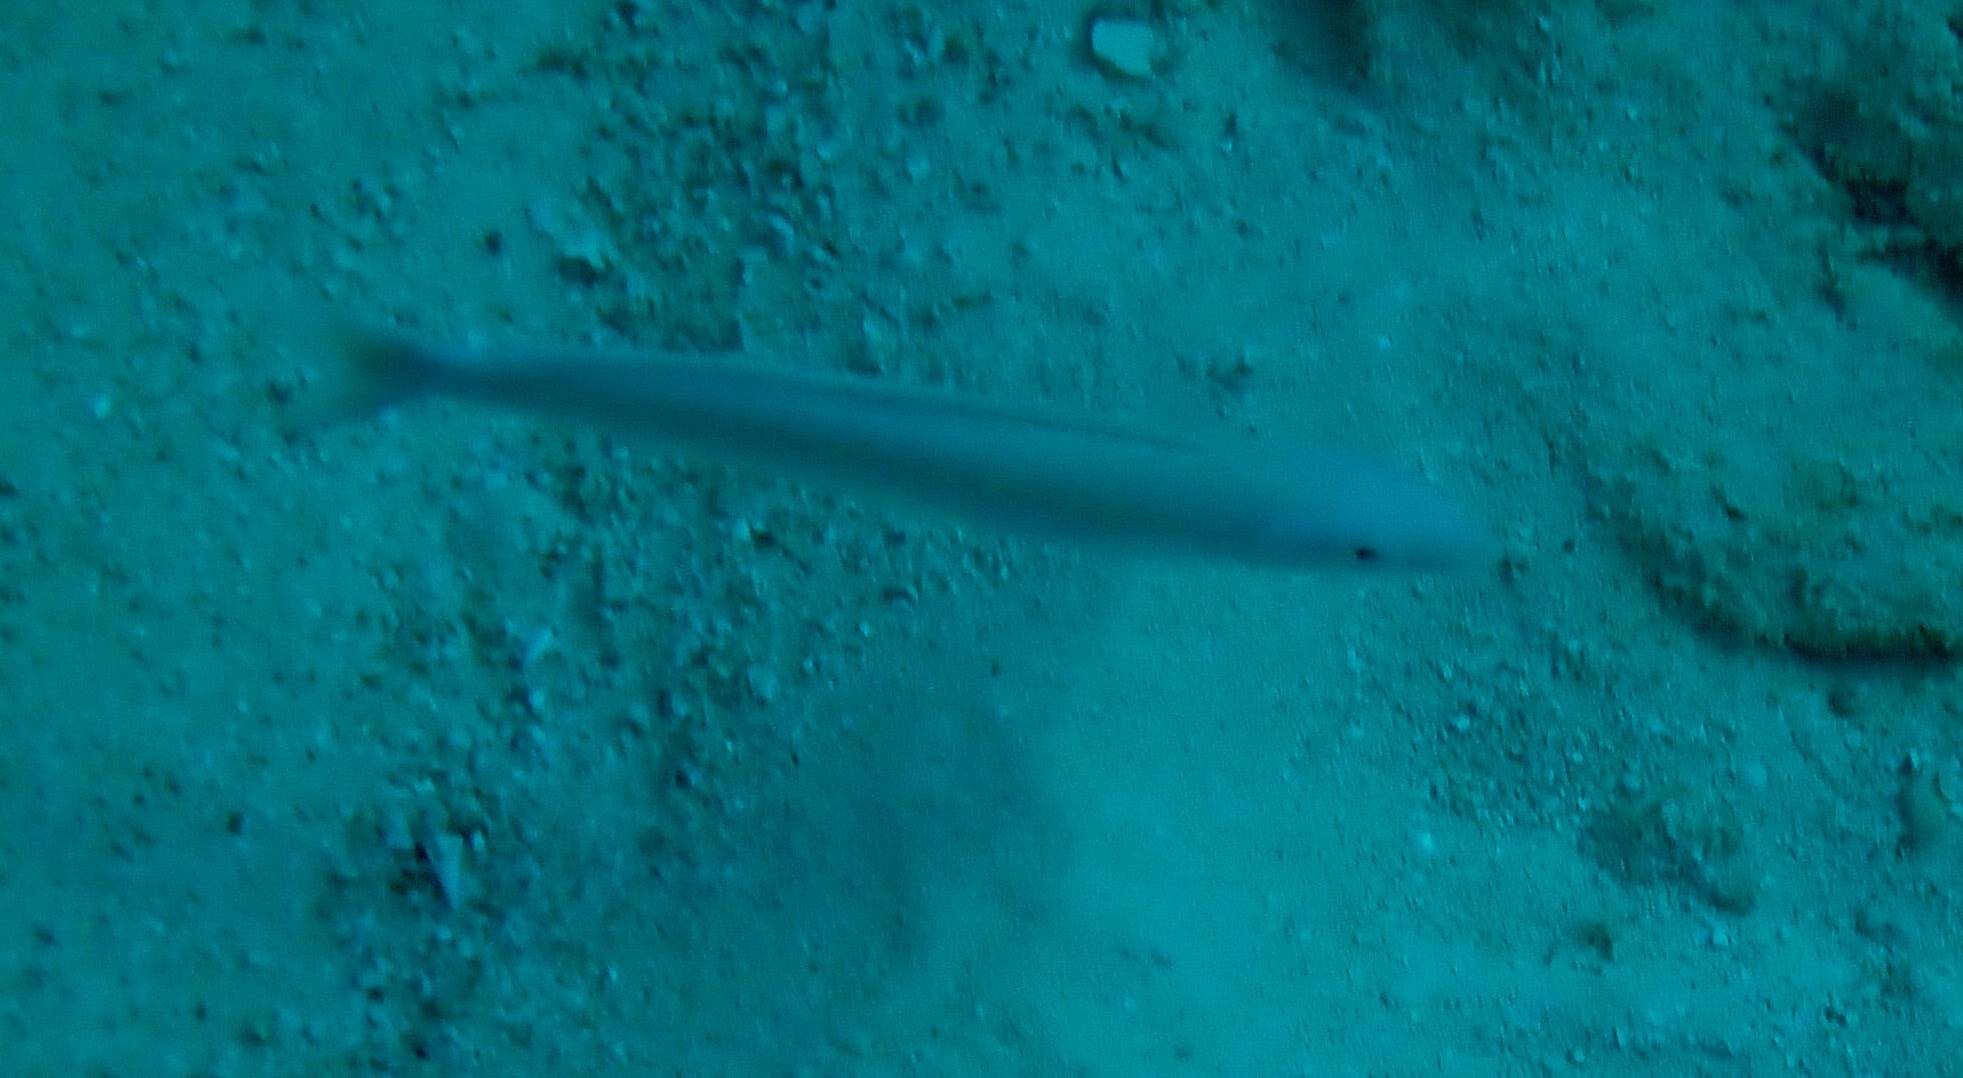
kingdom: Animalia
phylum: Chordata
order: Perciformes
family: Malacanthidae
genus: Malacanthus
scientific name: Malacanthus plumieri
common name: Sand tilefish
